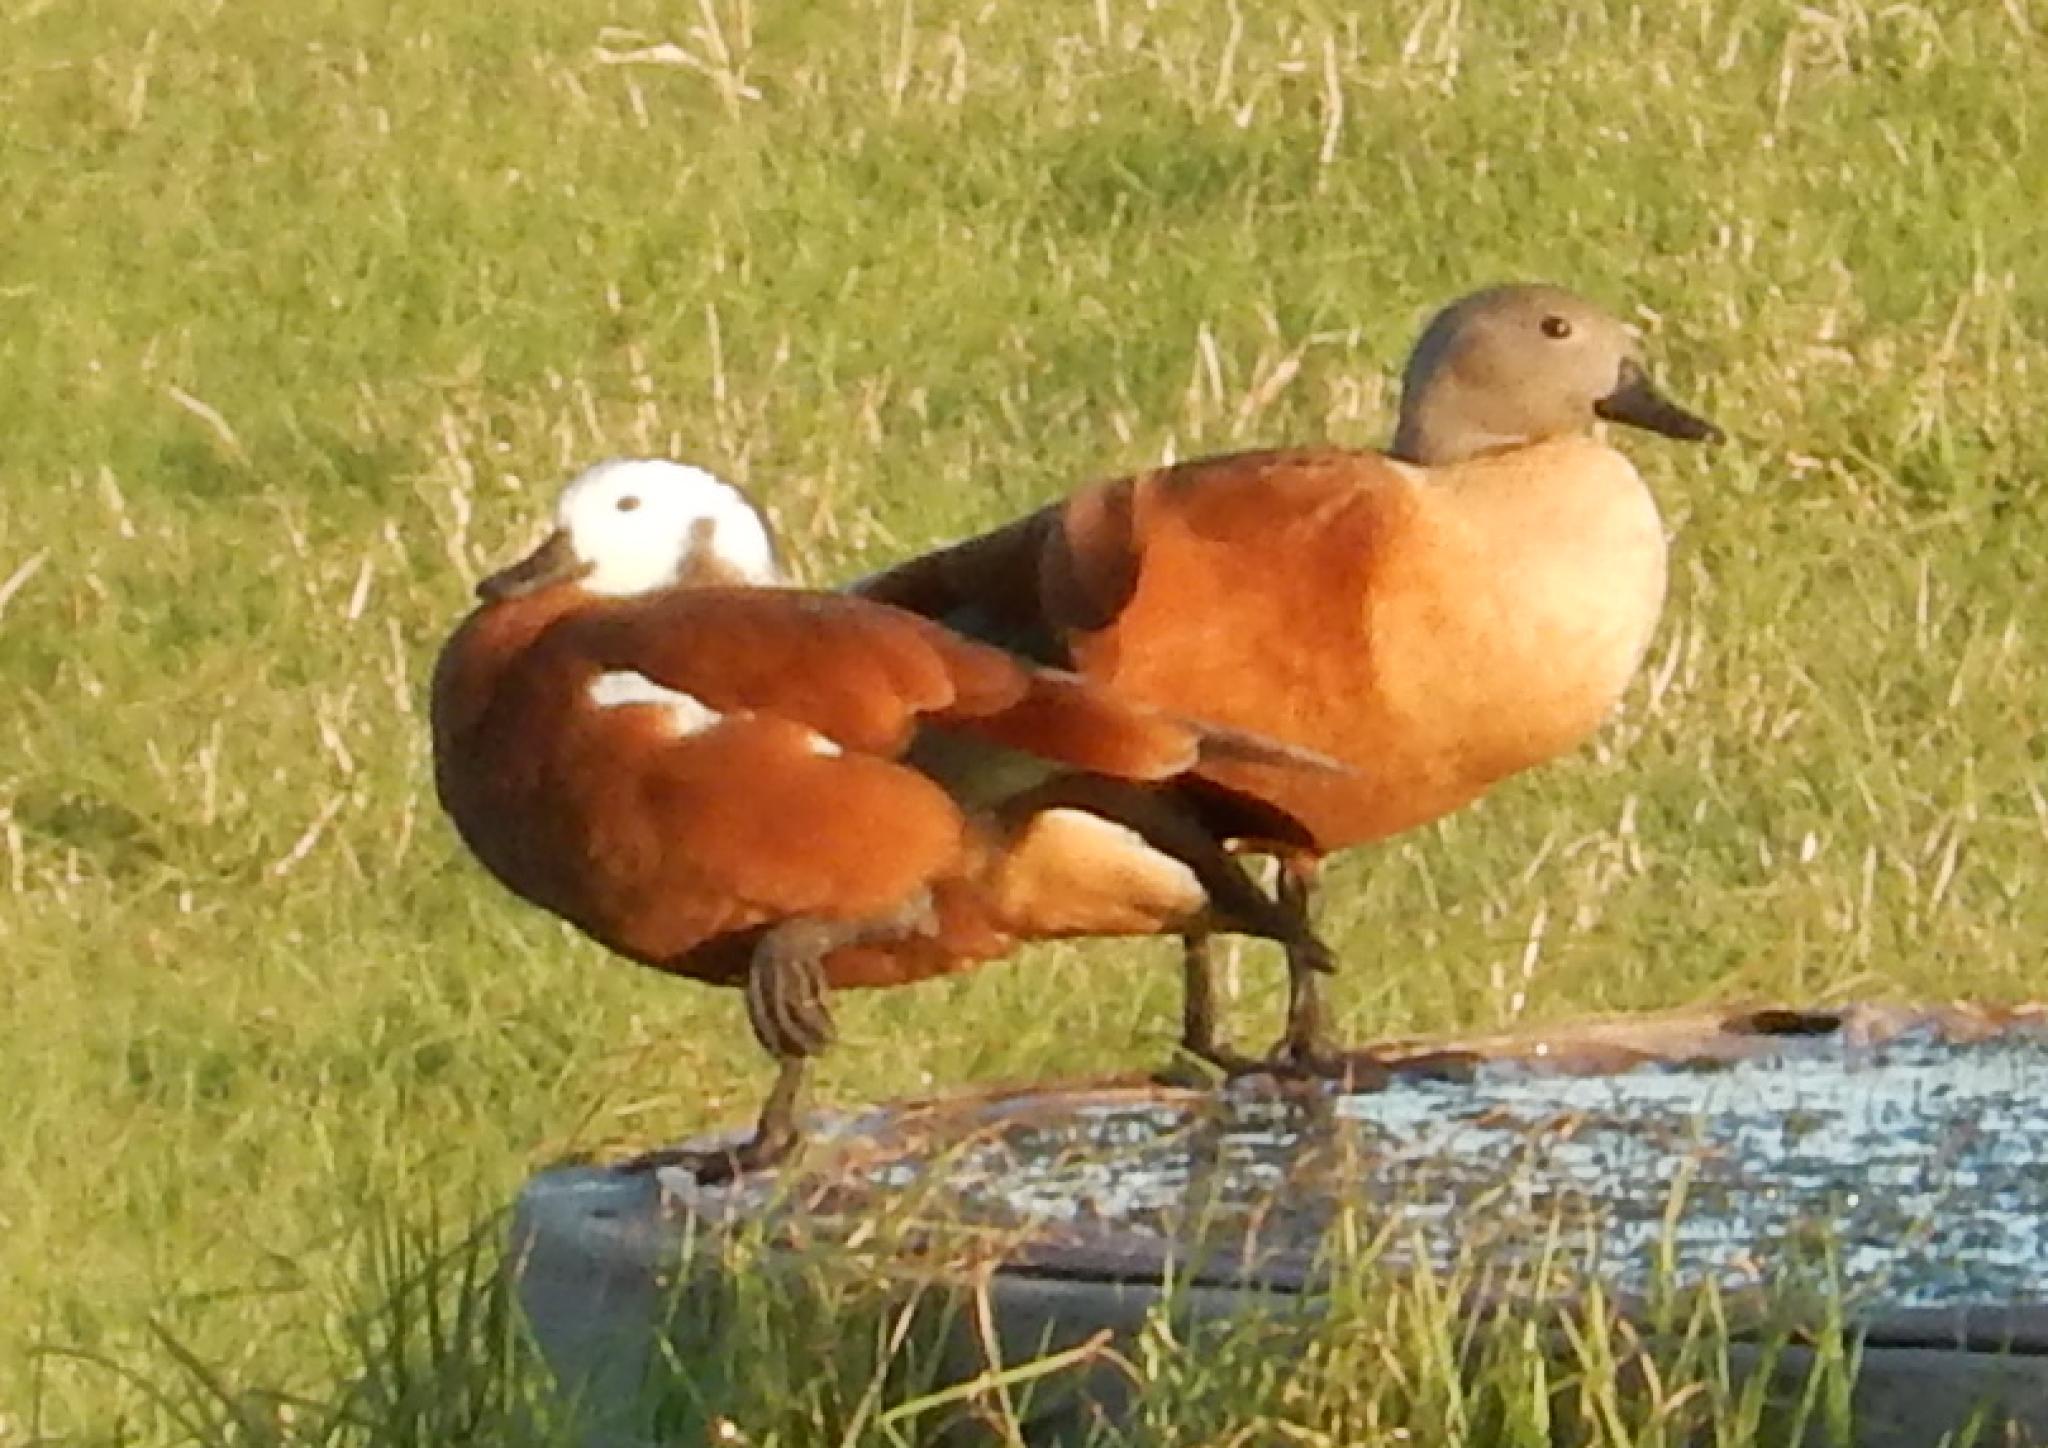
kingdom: Animalia
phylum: Chordata
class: Aves
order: Anseriformes
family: Anatidae
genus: Tadorna
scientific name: Tadorna cana
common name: South african shelduck
